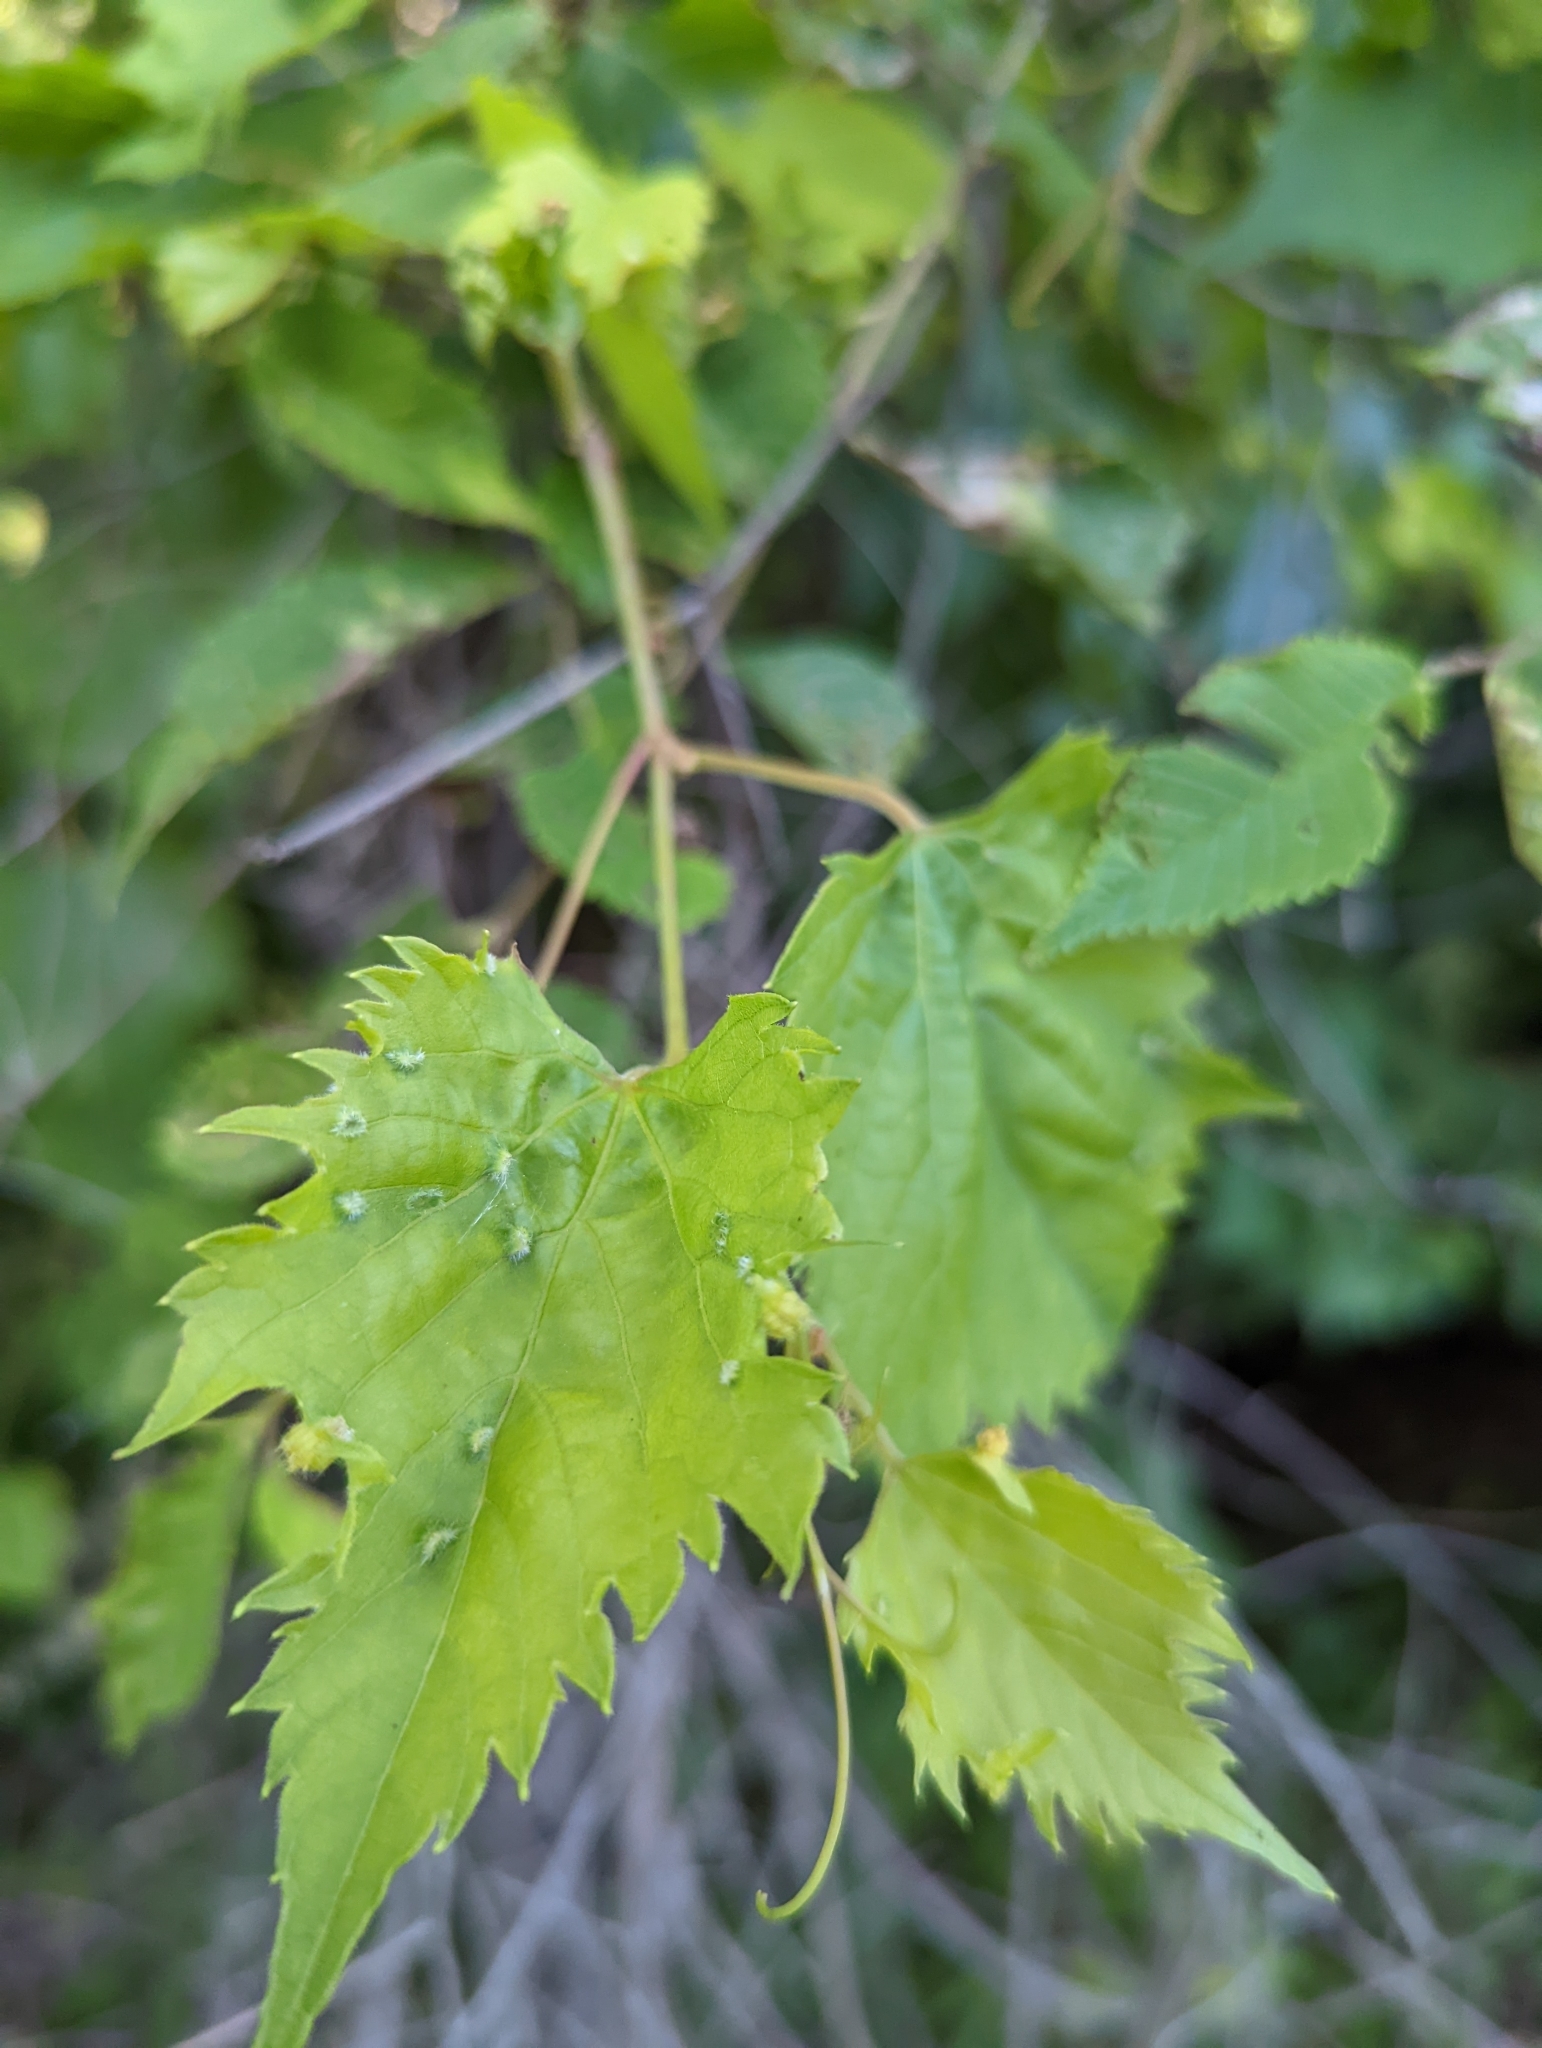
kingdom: Animalia
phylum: Arthropoda
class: Insecta
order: Hemiptera
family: Phylloxeridae
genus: Daktulosphaira
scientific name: Daktulosphaira vitifoliae
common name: Grape phylloxera
